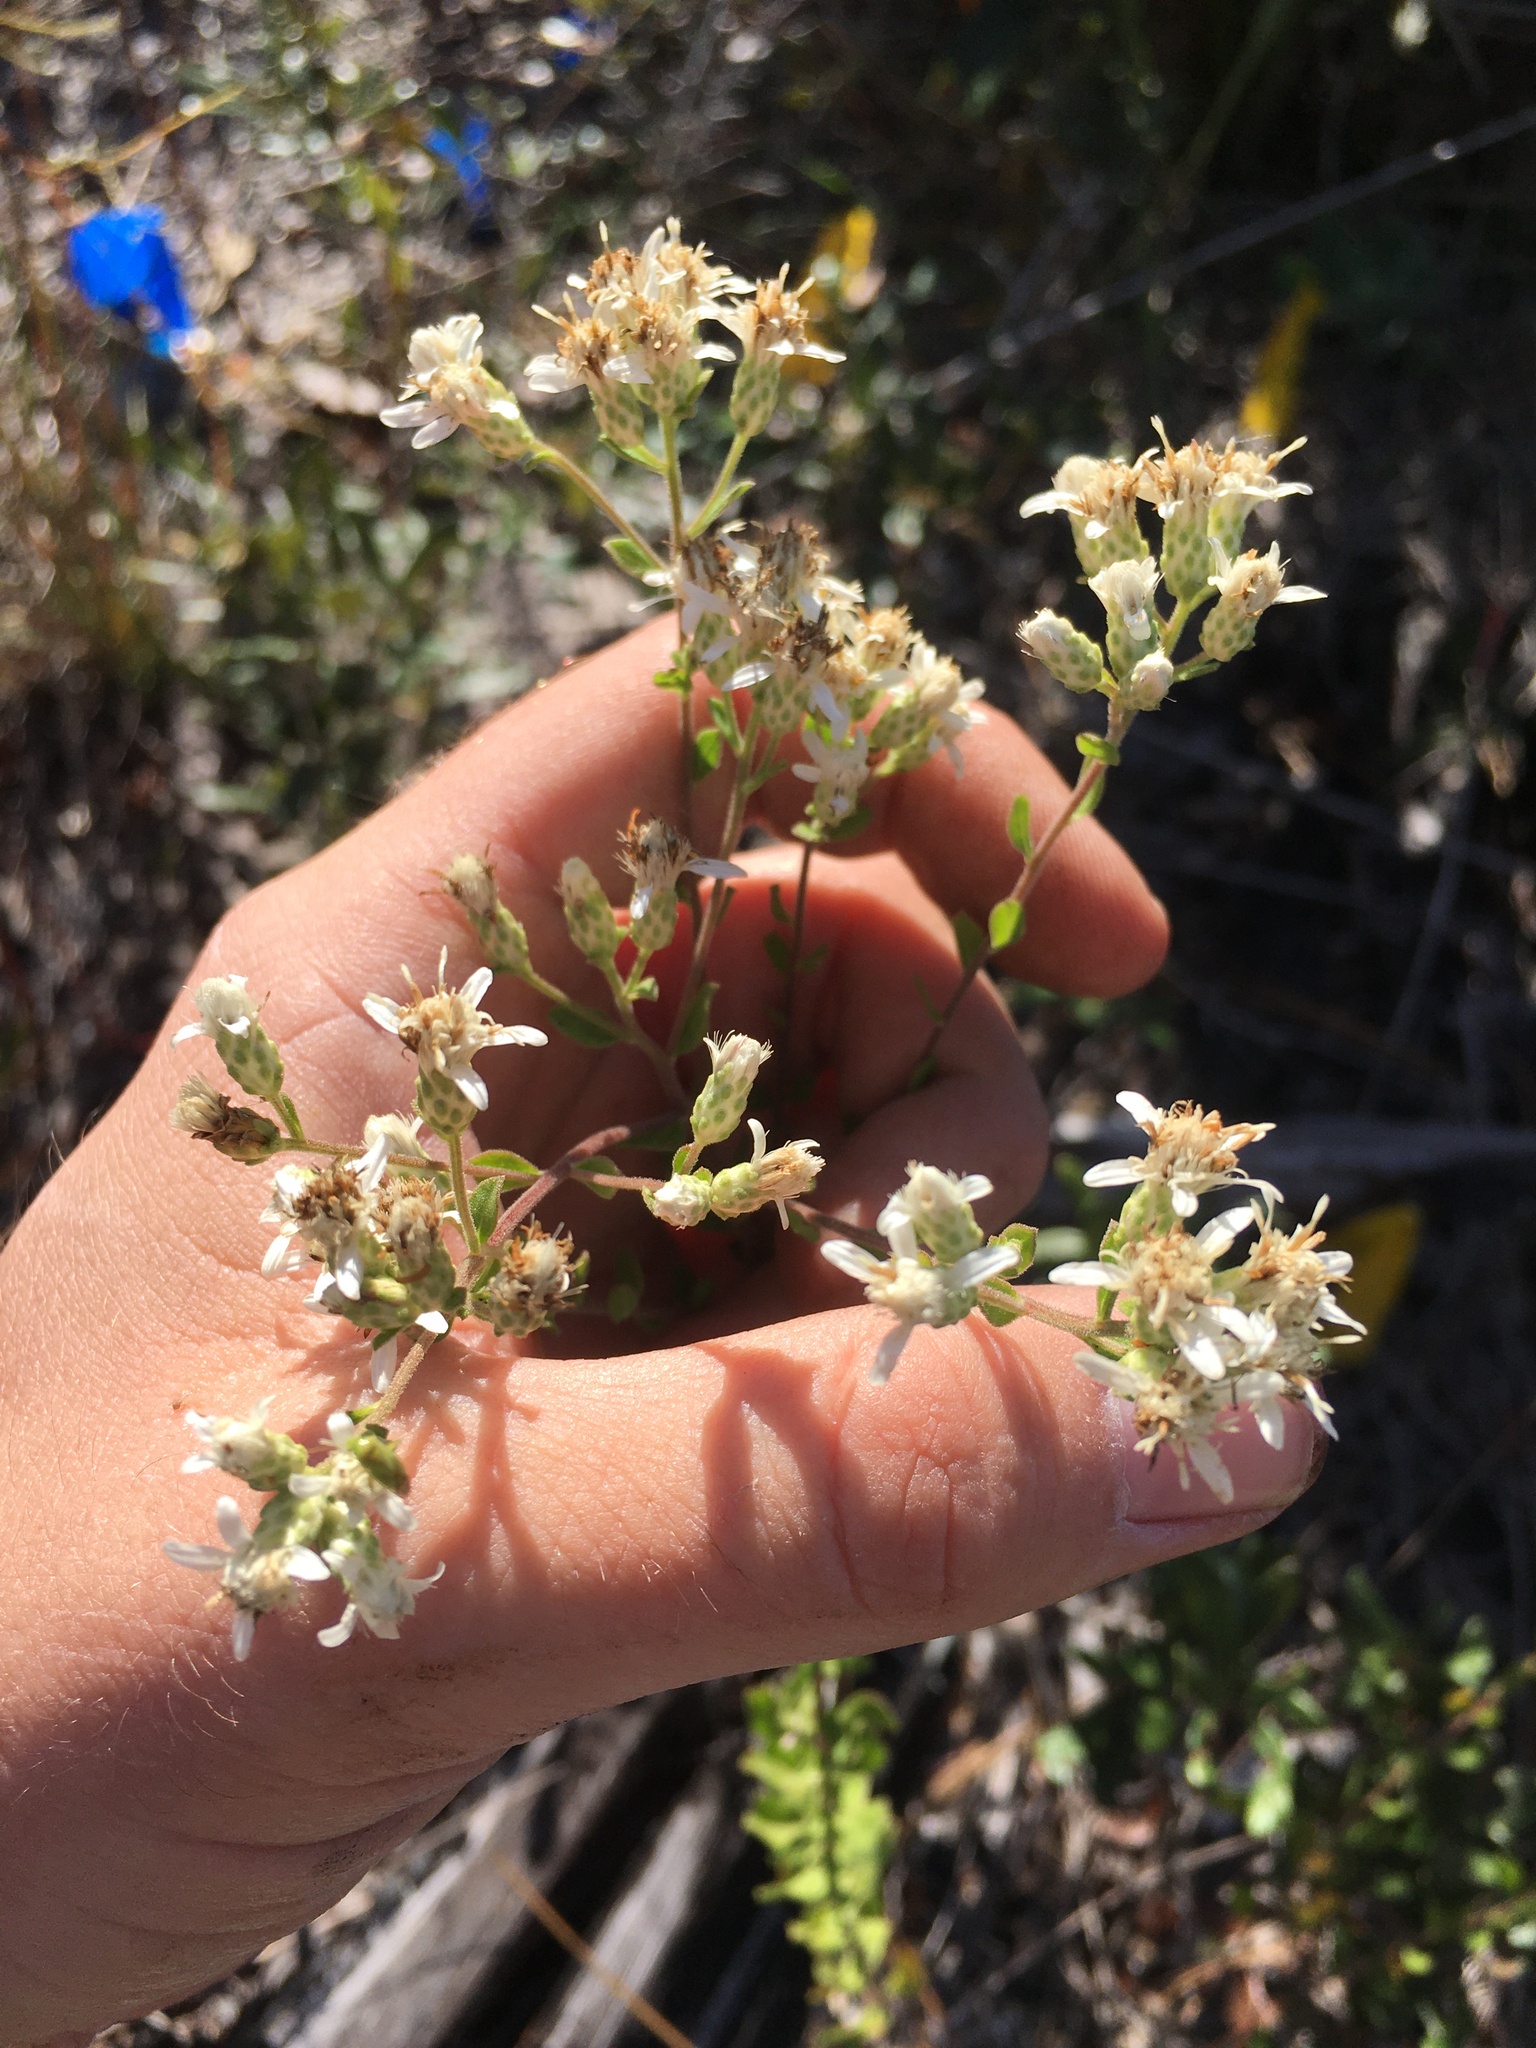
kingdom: Plantae
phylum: Tracheophyta
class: Magnoliopsida
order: Asterales
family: Asteraceae
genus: Sericocarpus
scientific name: Sericocarpus tortifolius
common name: Dixie aster
